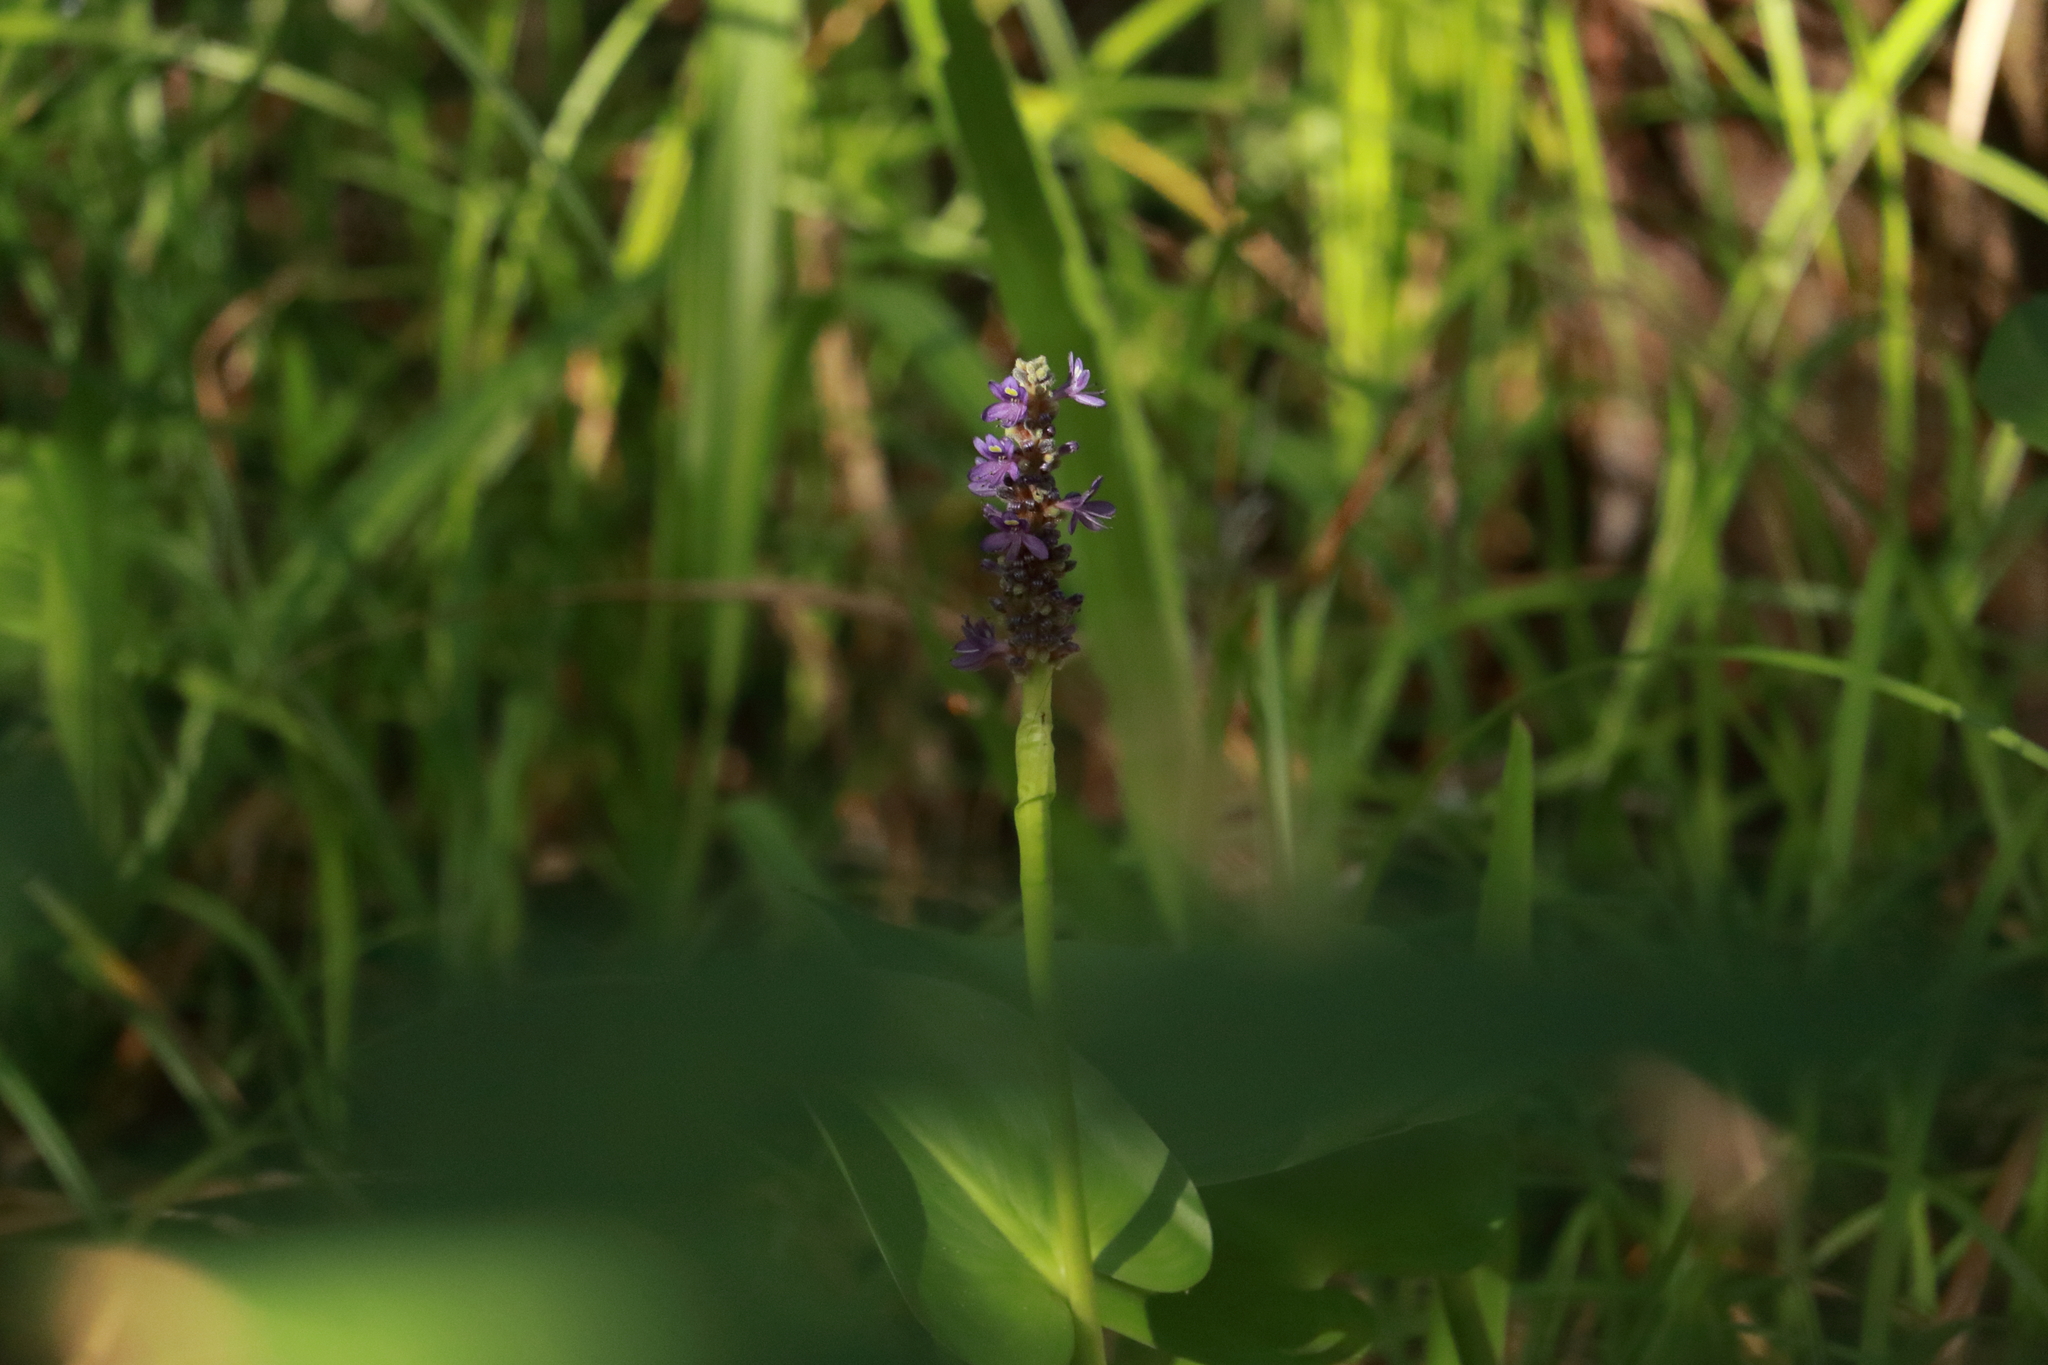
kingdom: Plantae
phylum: Tracheophyta
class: Liliopsida
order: Commelinales
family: Pontederiaceae
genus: Pontederia
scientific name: Pontederia cordata
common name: Pickerelweed
